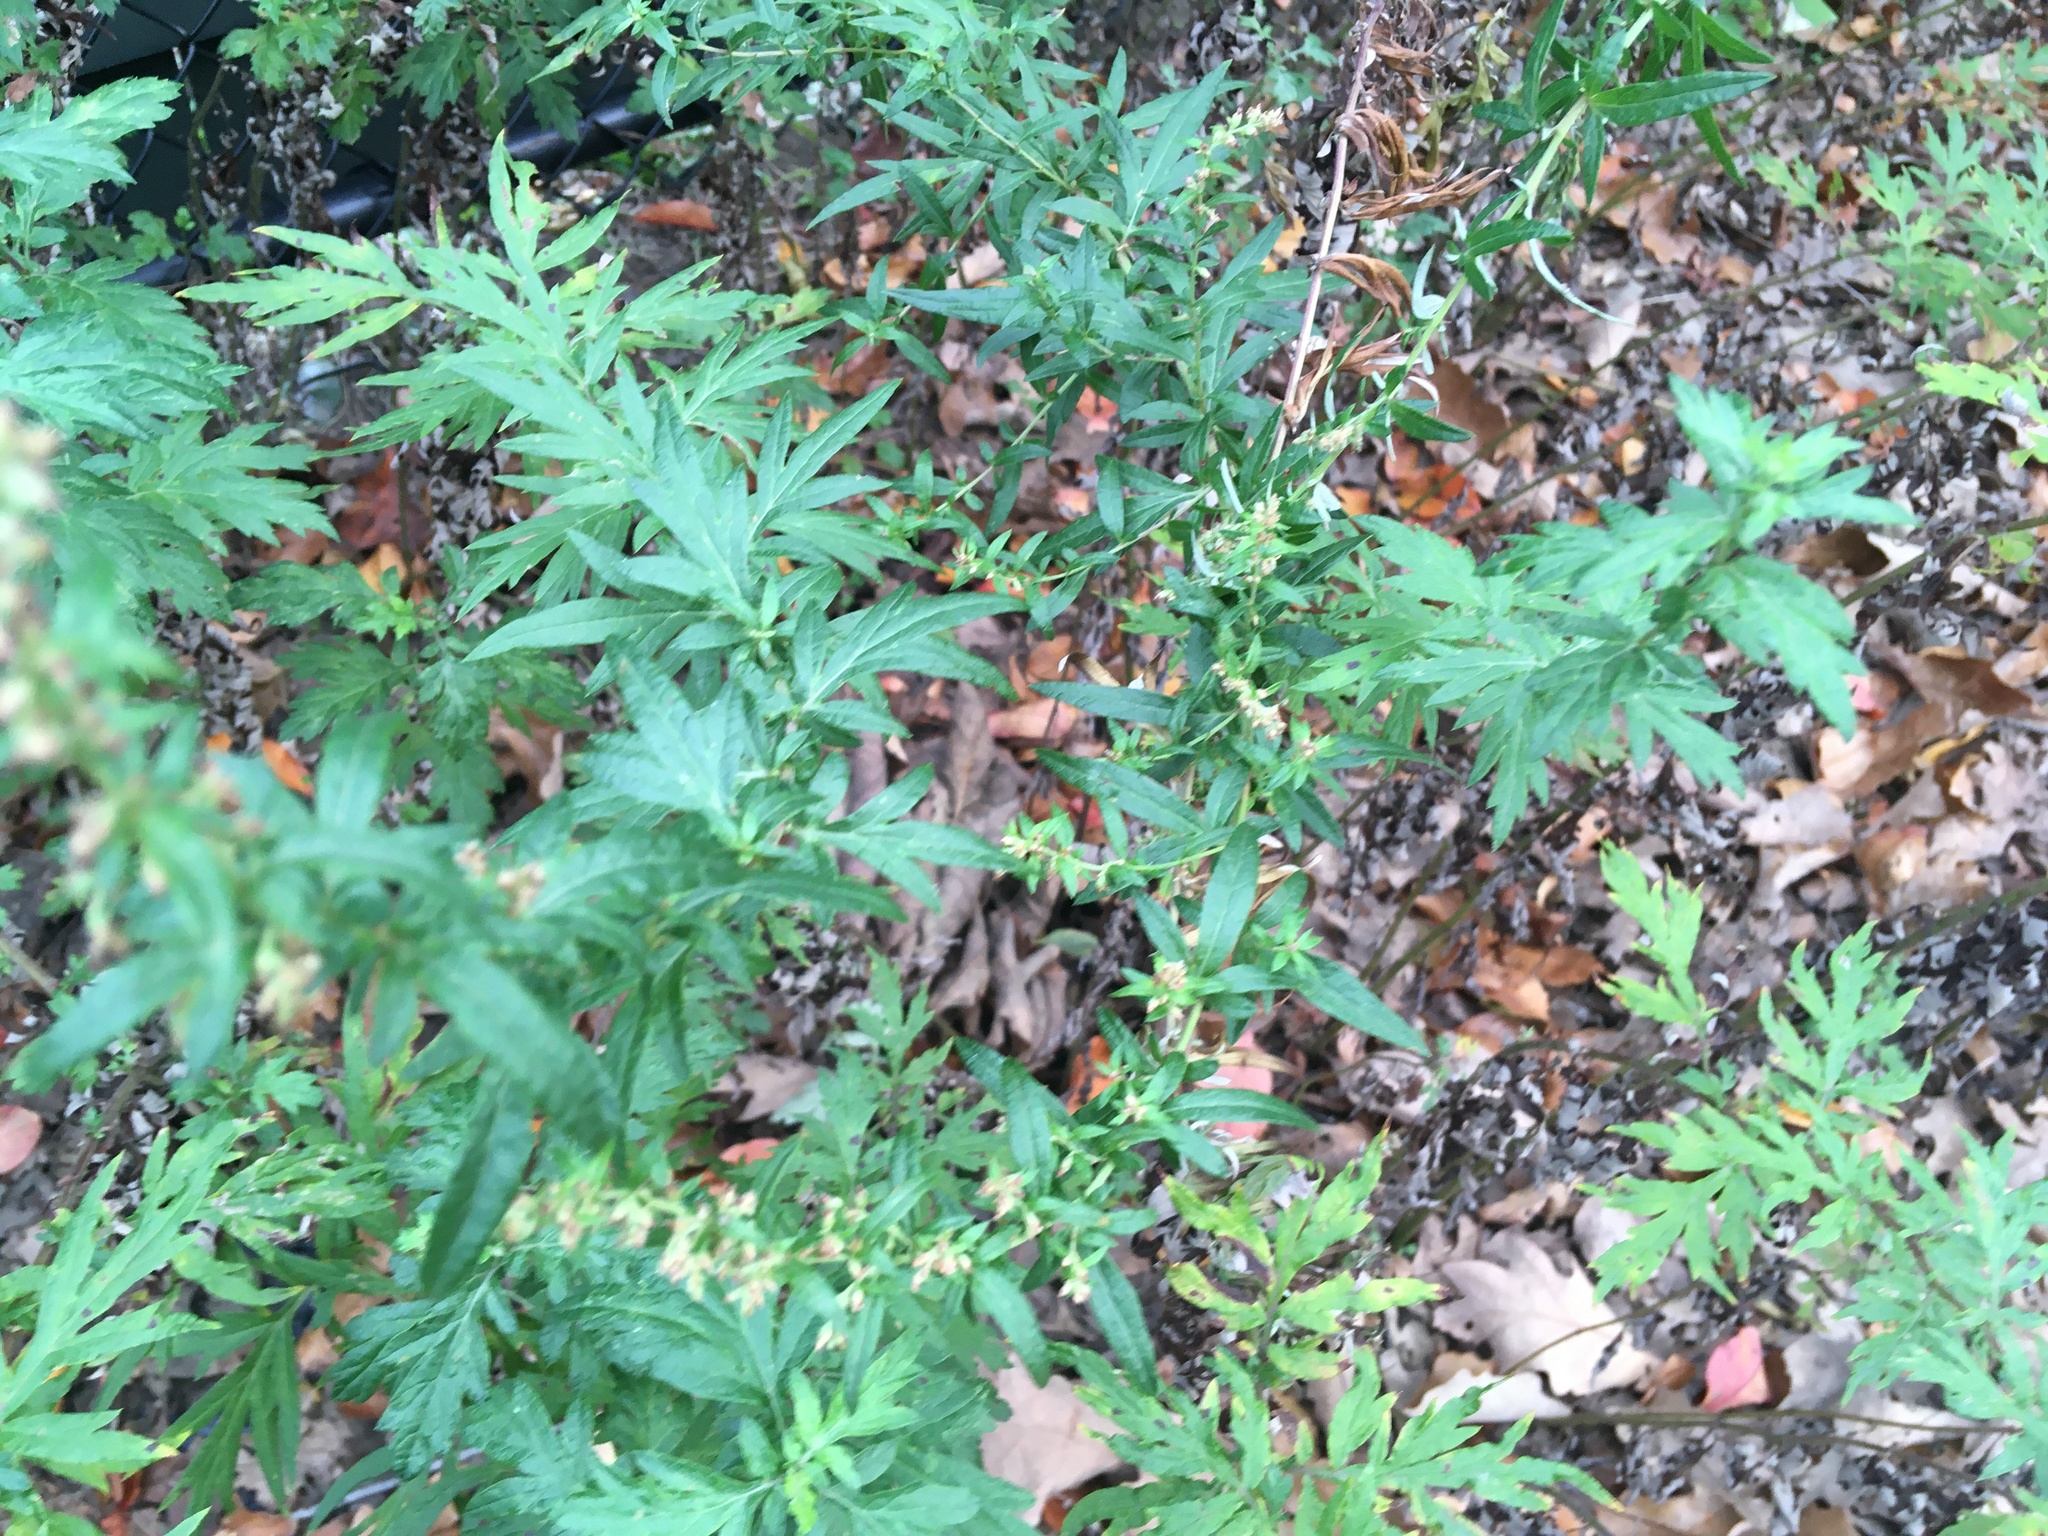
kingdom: Plantae
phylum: Tracheophyta
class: Magnoliopsida
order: Asterales
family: Asteraceae
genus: Artemisia
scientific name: Artemisia vulgaris
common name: Mugwort
